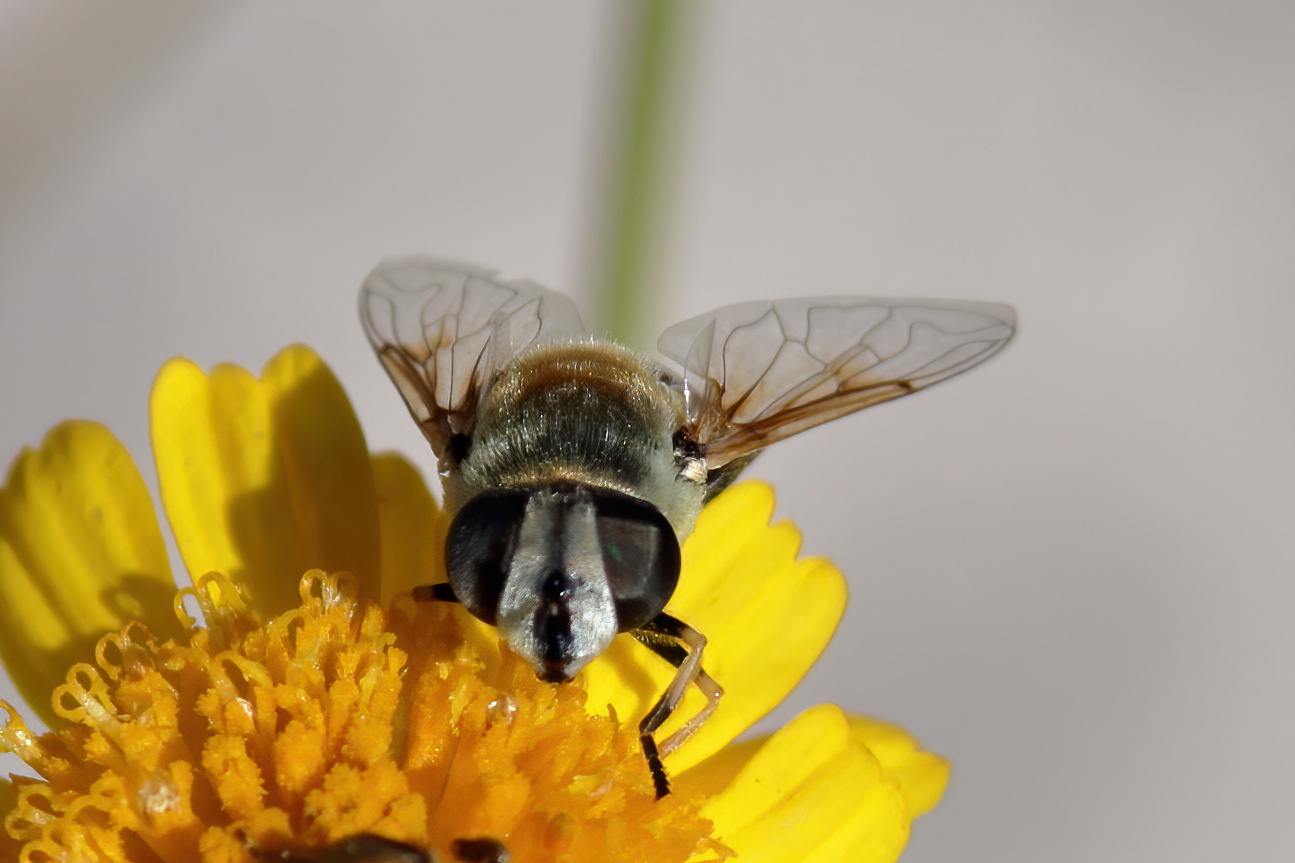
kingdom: Animalia
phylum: Arthropoda
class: Insecta
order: Diptera
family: Syrphidae
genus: Eristalis
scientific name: Eristalis stipator
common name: Yellow-shouldered drone fly
